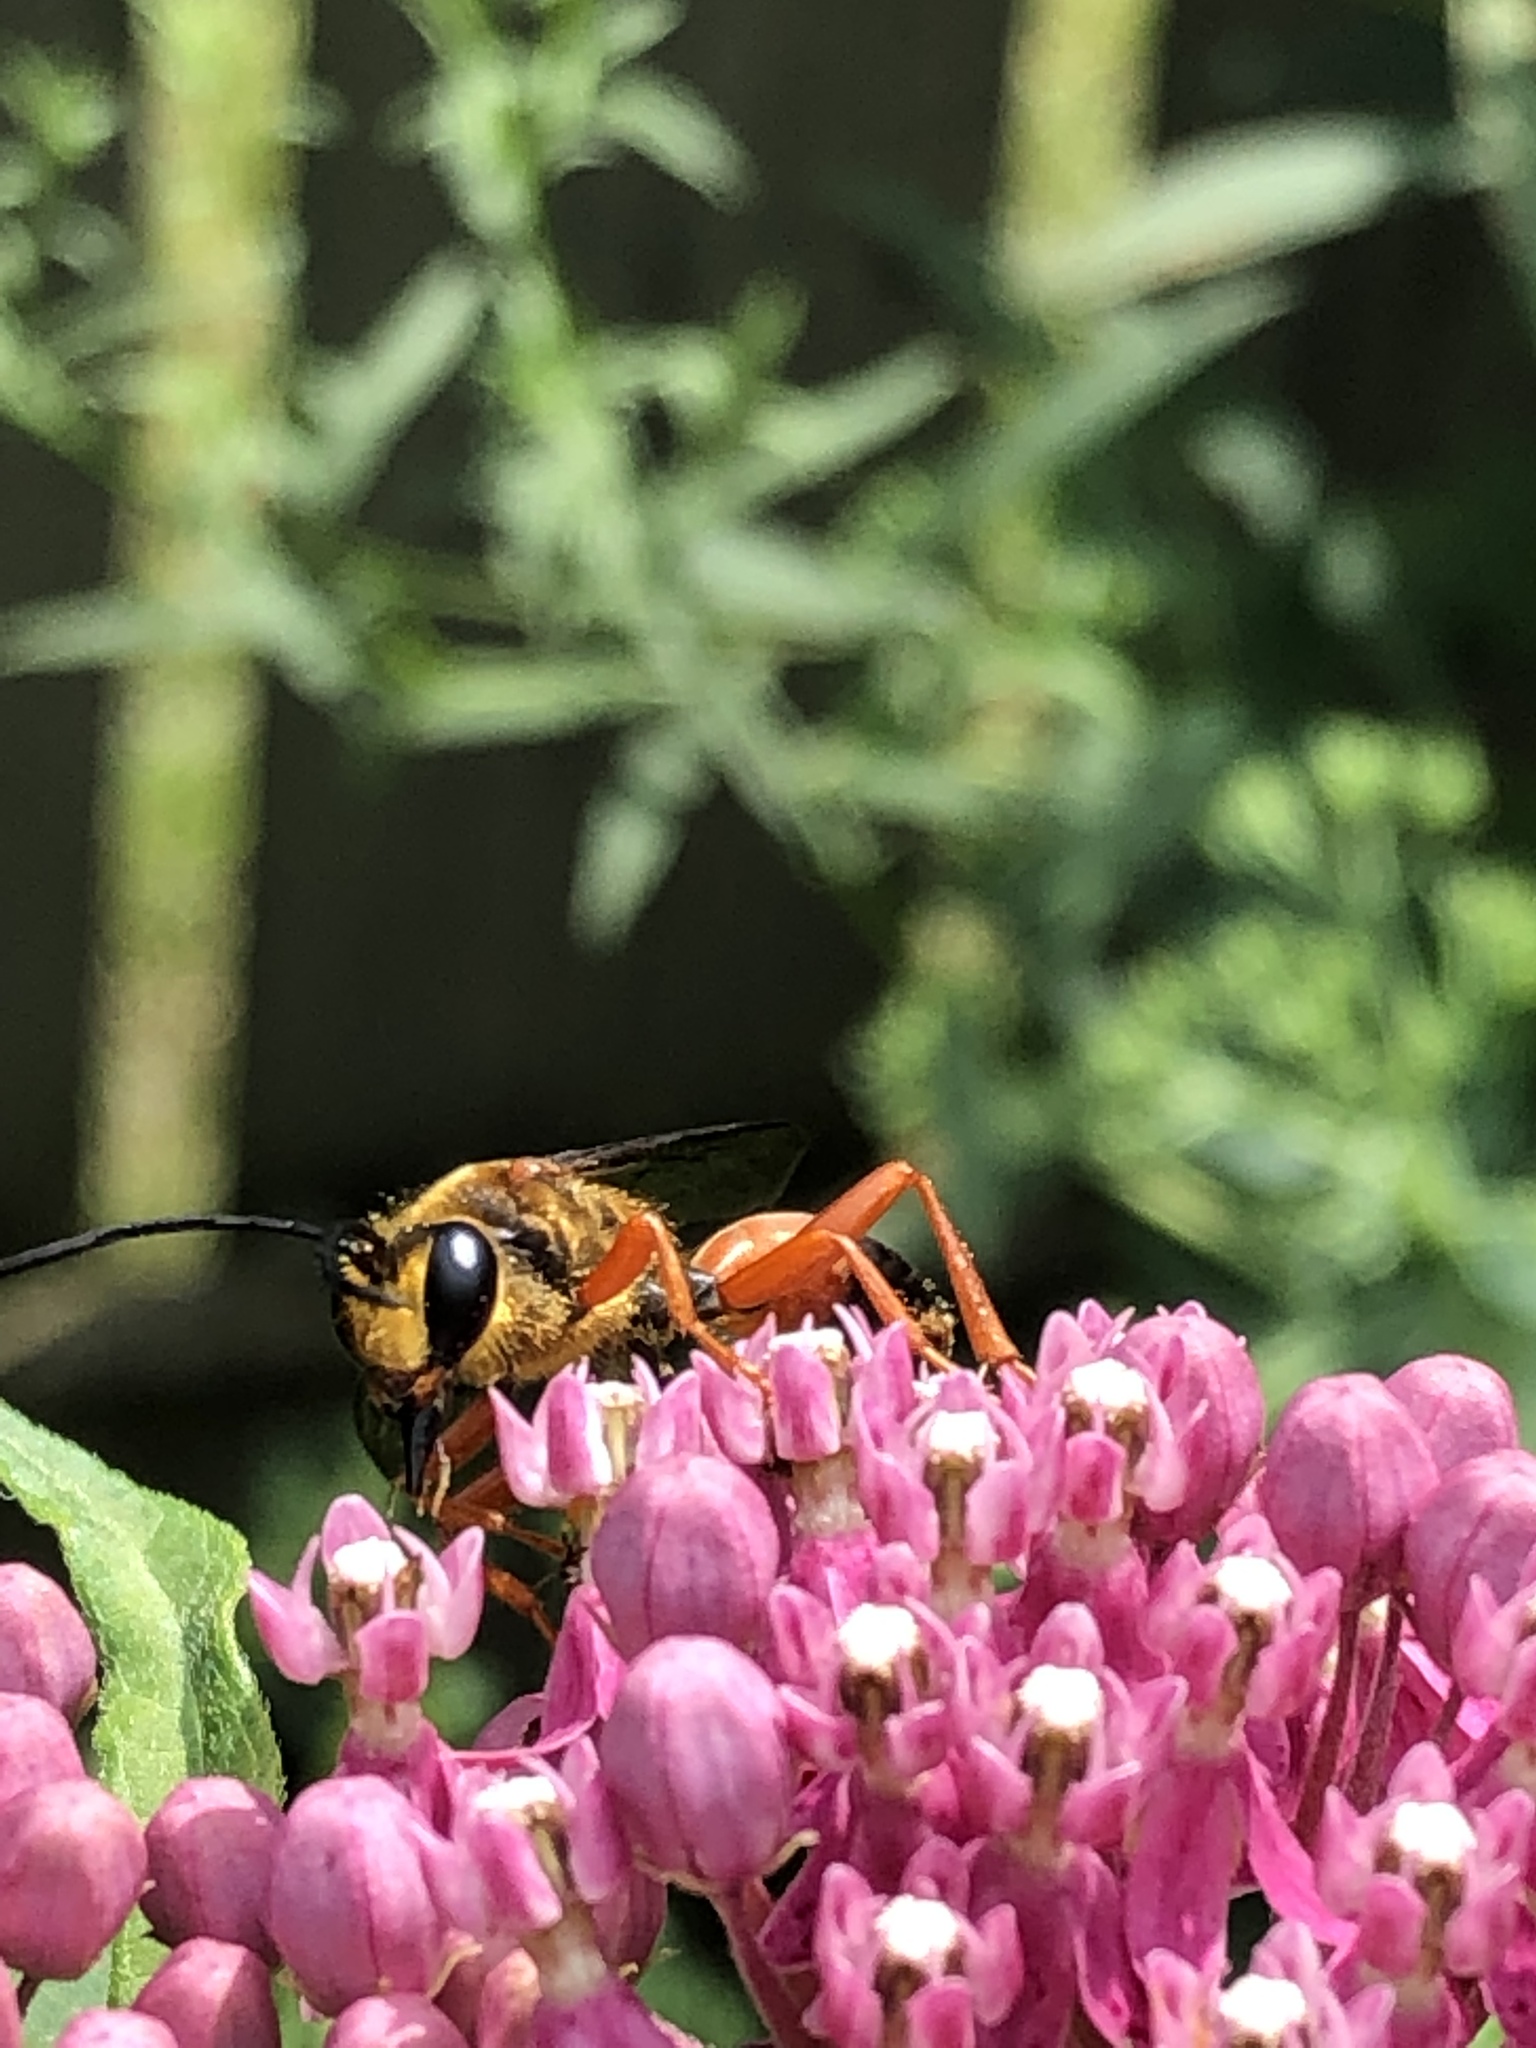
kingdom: Animalia
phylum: Arthropoda
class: Insecta
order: Hymenoptera
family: Sphecidae
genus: Sphex
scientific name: Sphex ichneumoneus
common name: Great golden digger wasp
